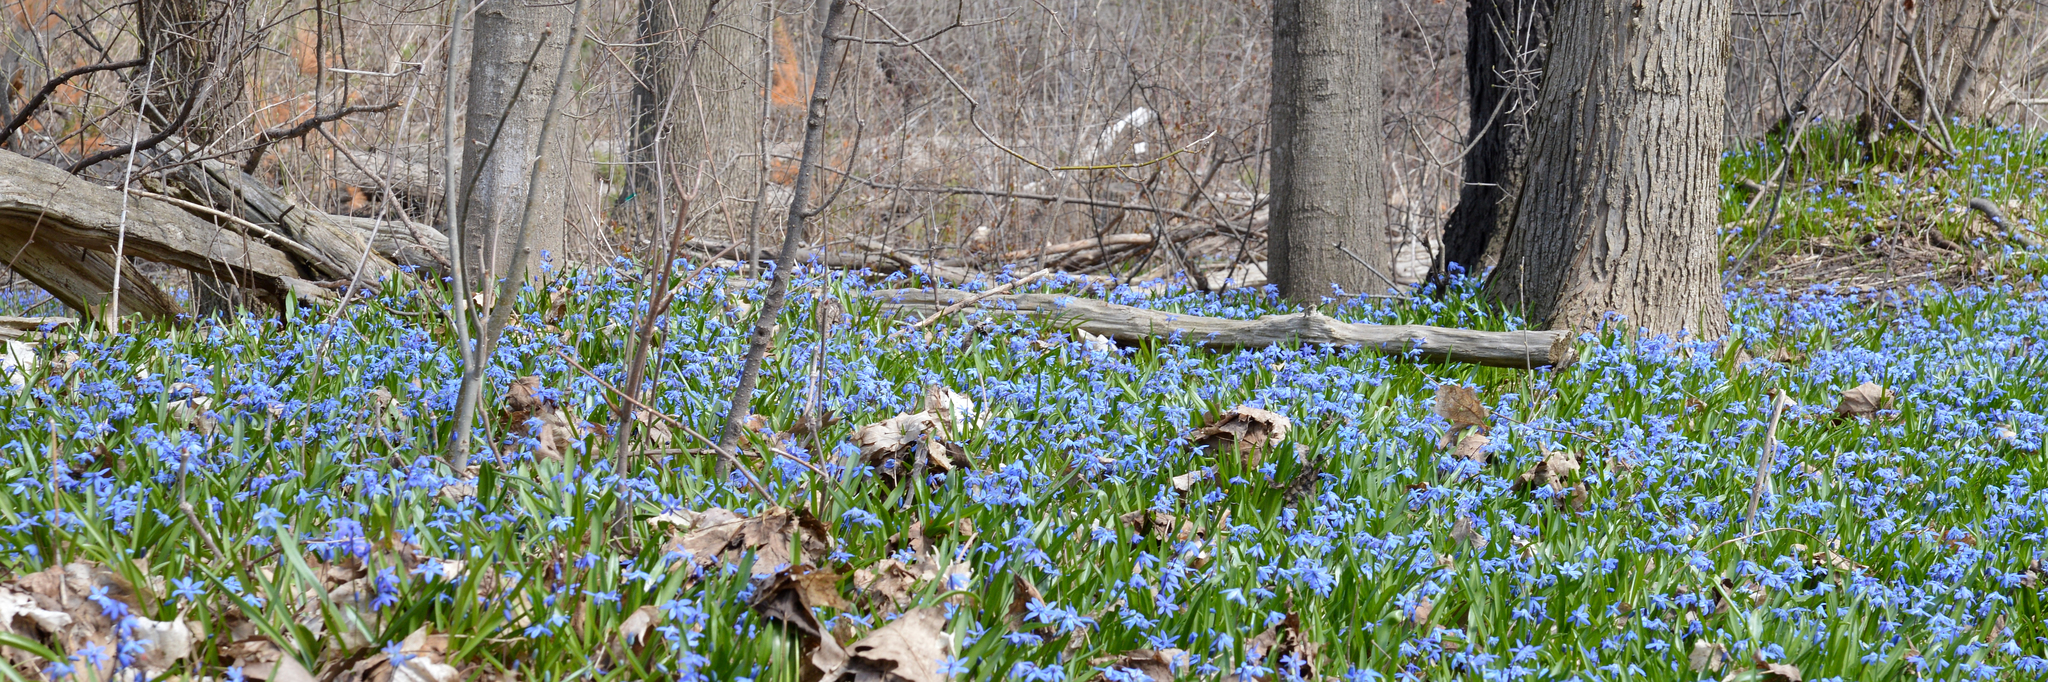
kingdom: Plantae
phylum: Tracheophyta
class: Liliopsida
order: Asparagales
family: Asparagaceae
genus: Scilla
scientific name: Scilla siberica
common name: Siberian squill
